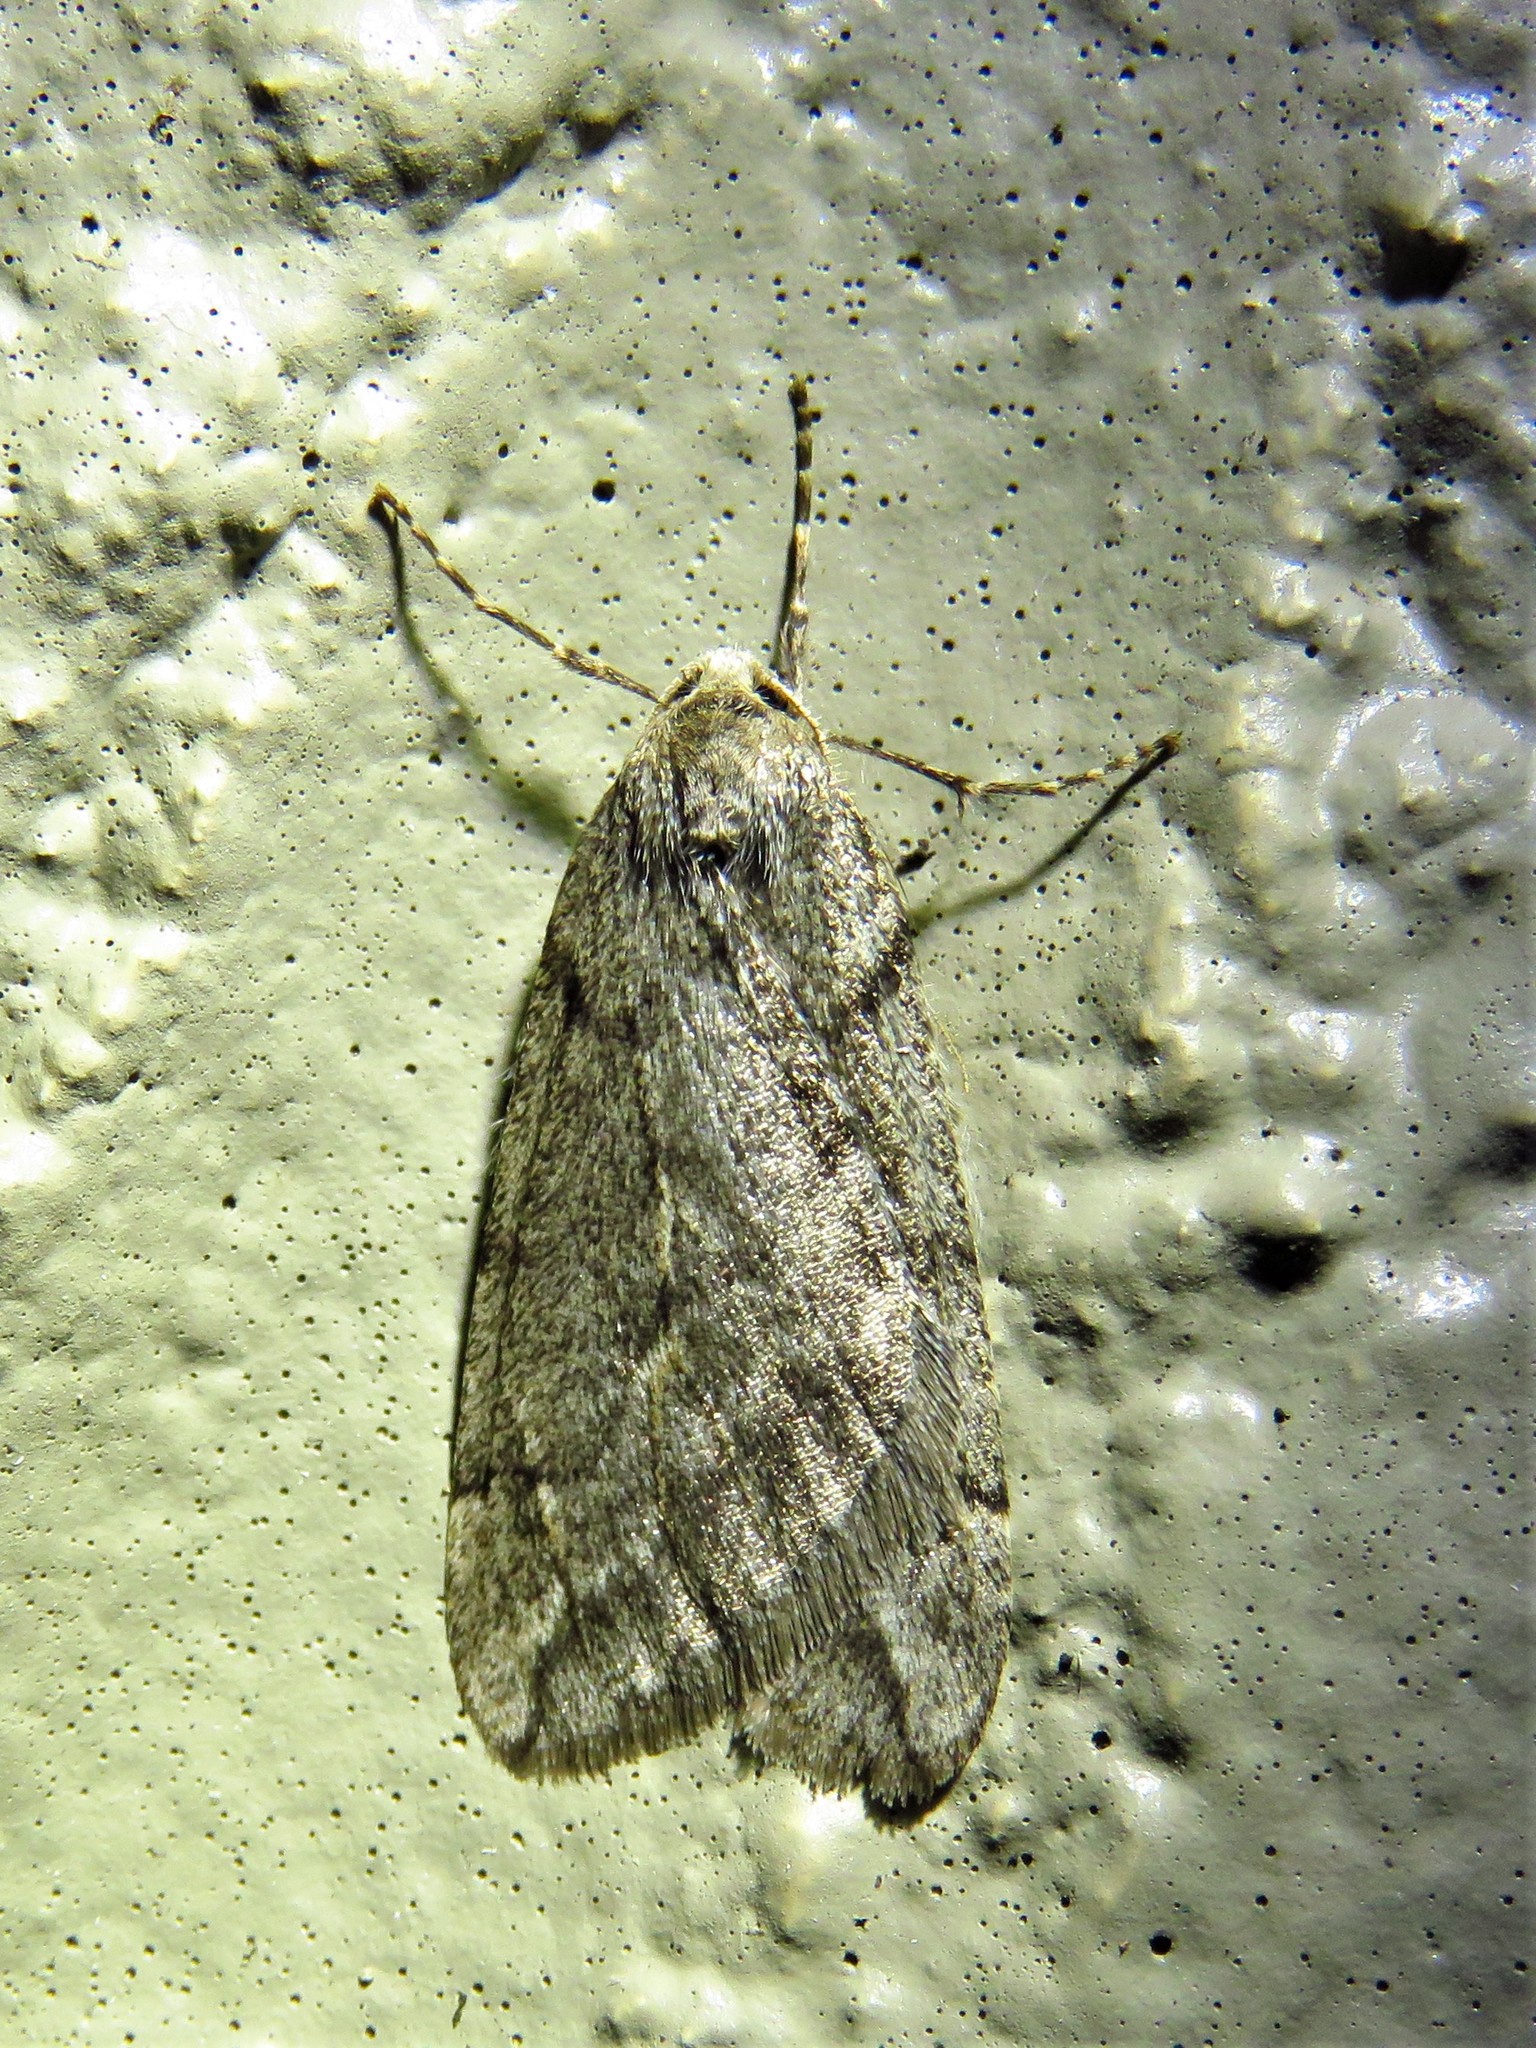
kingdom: Animalia
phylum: Arthropoda
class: Insecta
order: Lepidoptera
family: Geometridae
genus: Paleacrita
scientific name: Paleacrita vernata
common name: Spring cankerworm
